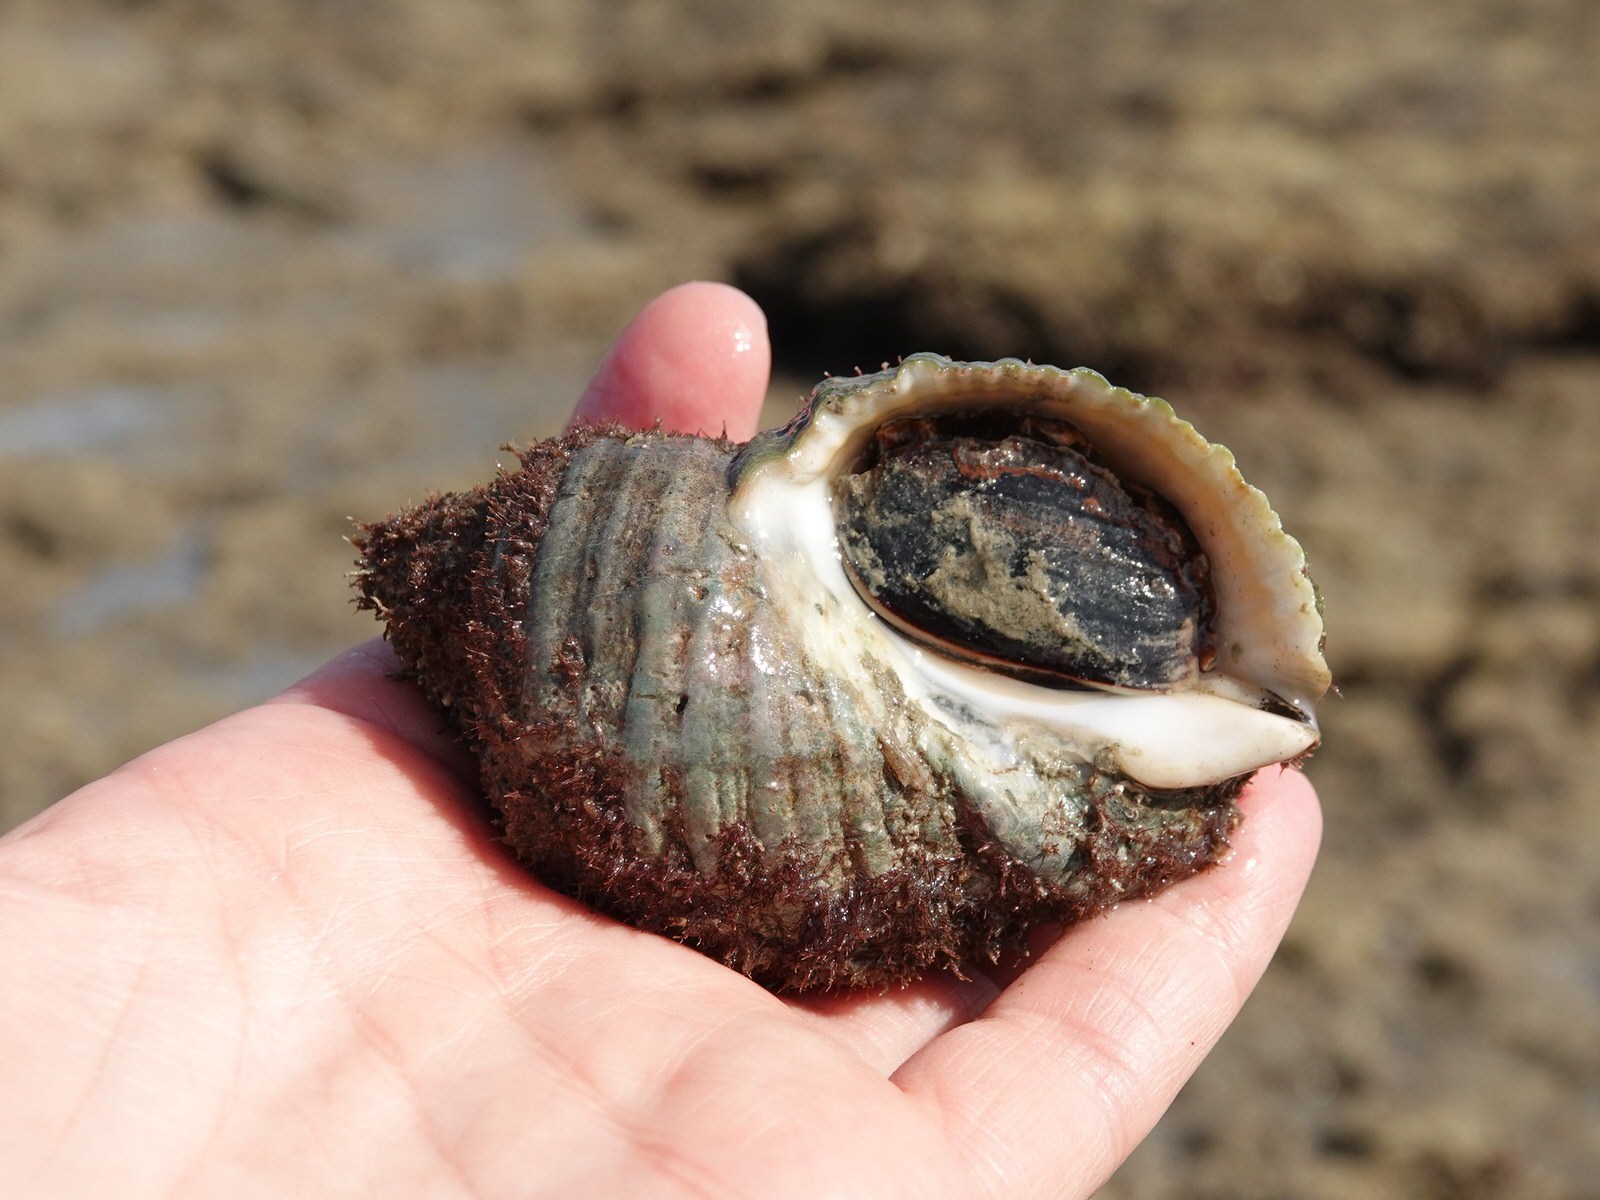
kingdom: Animalia
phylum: Mollusca
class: Gastropoda
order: Neogastropoda
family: Muricidae
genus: Dicathais
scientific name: Dicathais orbita
